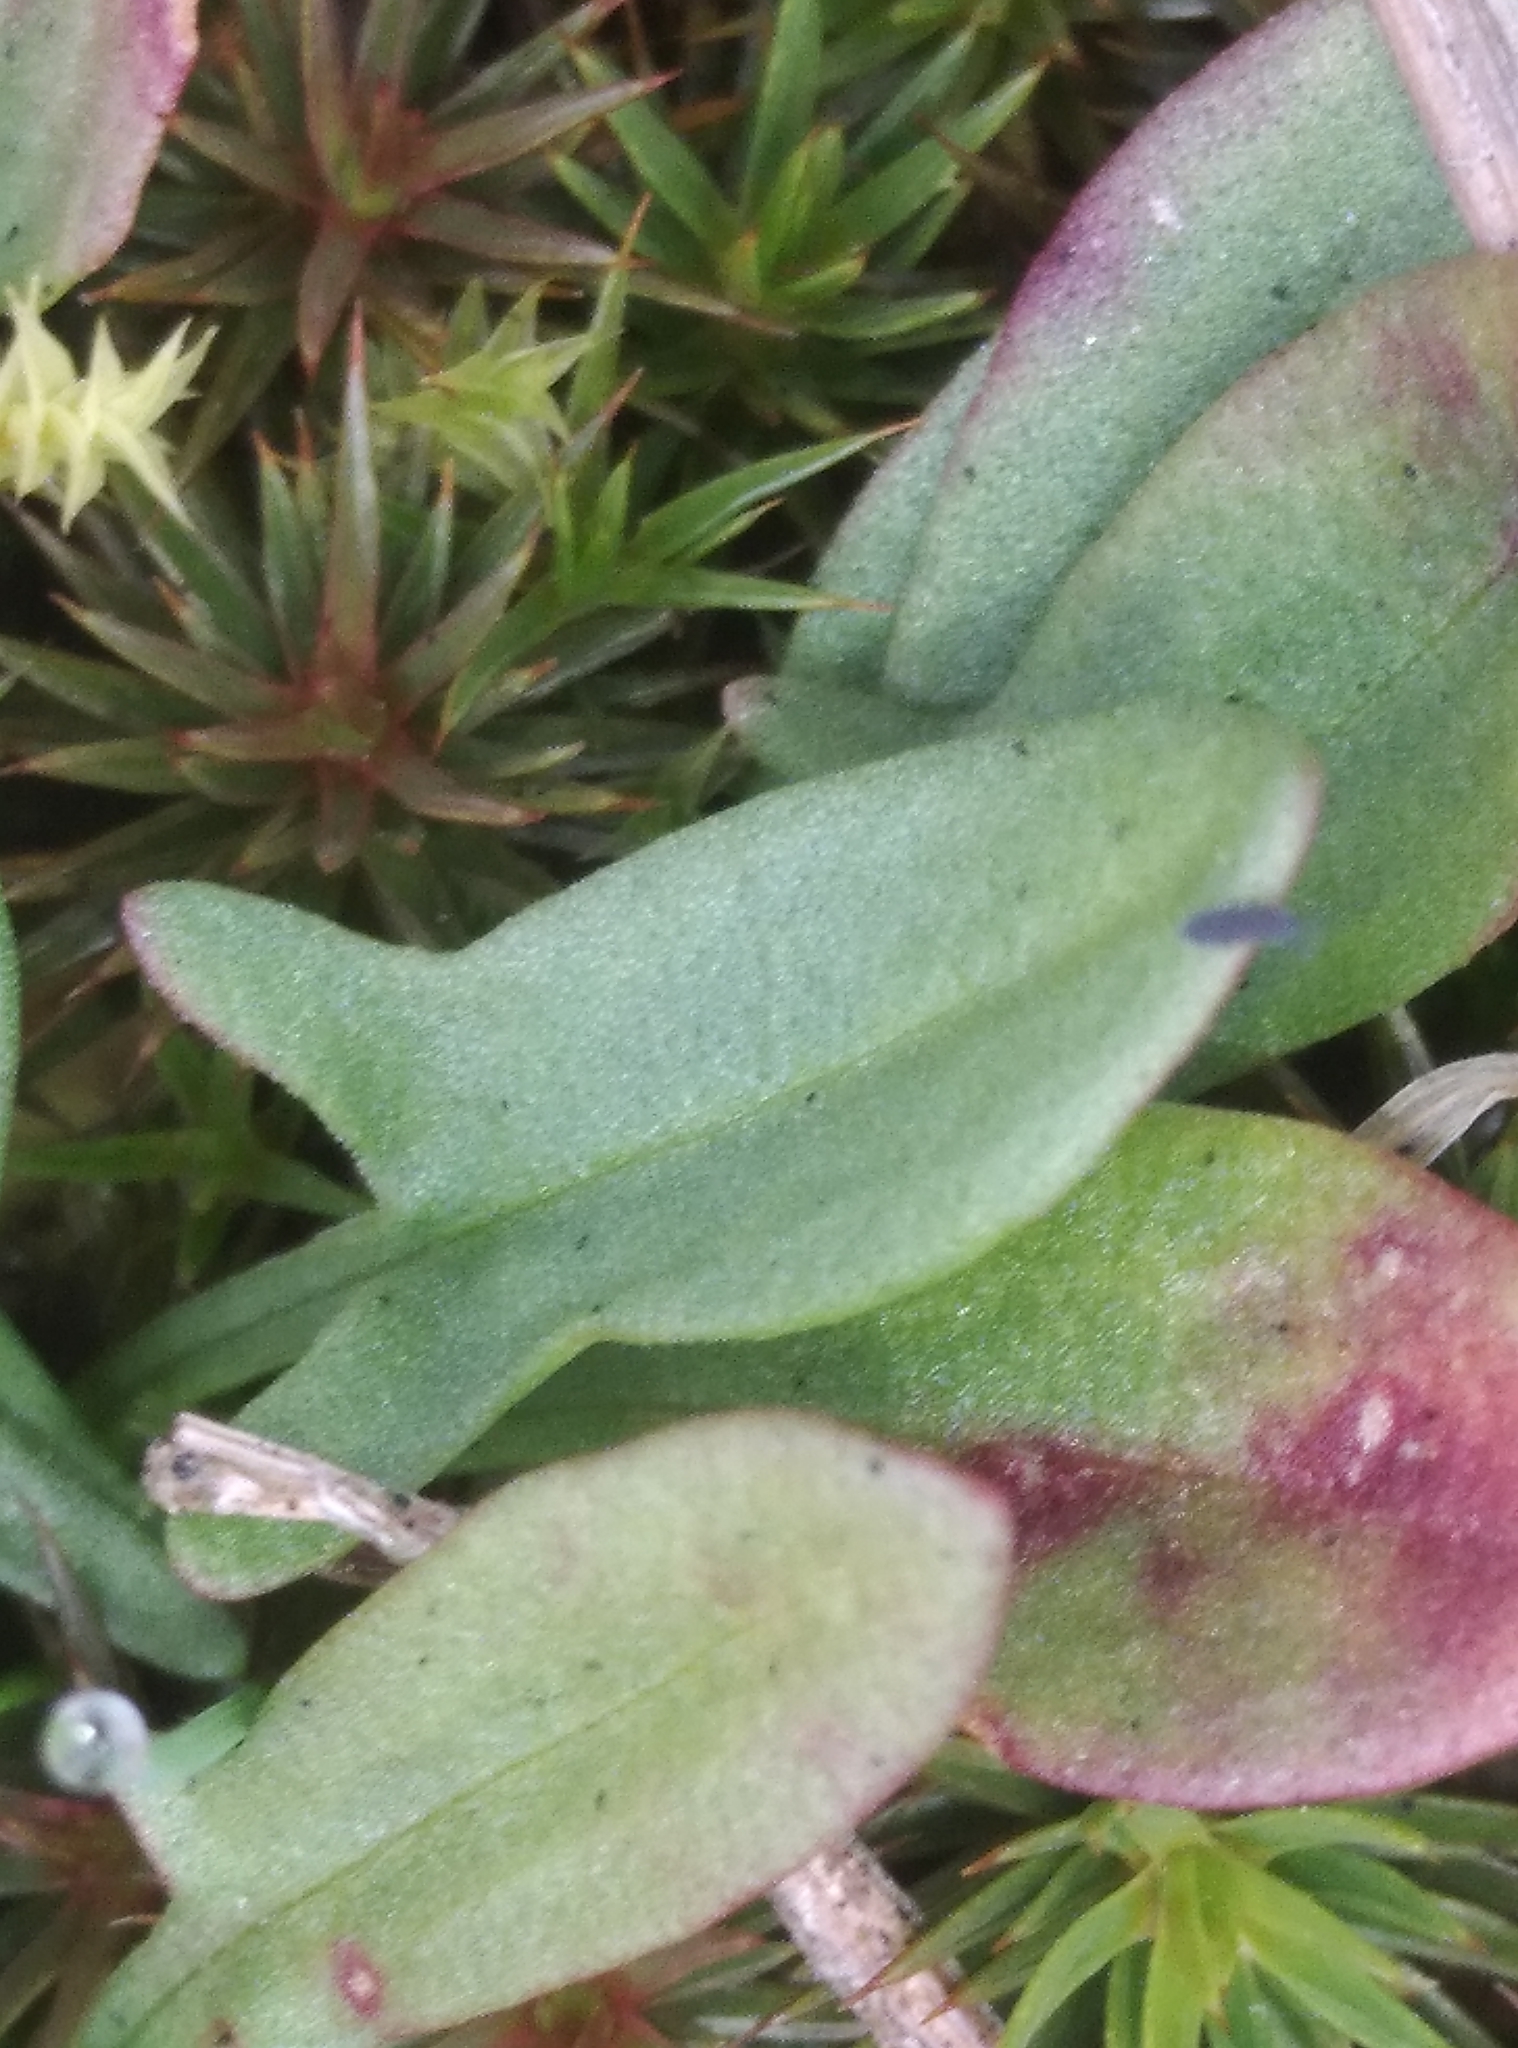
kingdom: Plantae
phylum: Tracheophyta
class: Magnoliopsida
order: Caryophyllales
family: Polygonaceae
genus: Rumex
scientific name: Rumex acetosella
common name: Common sheep sorrel
